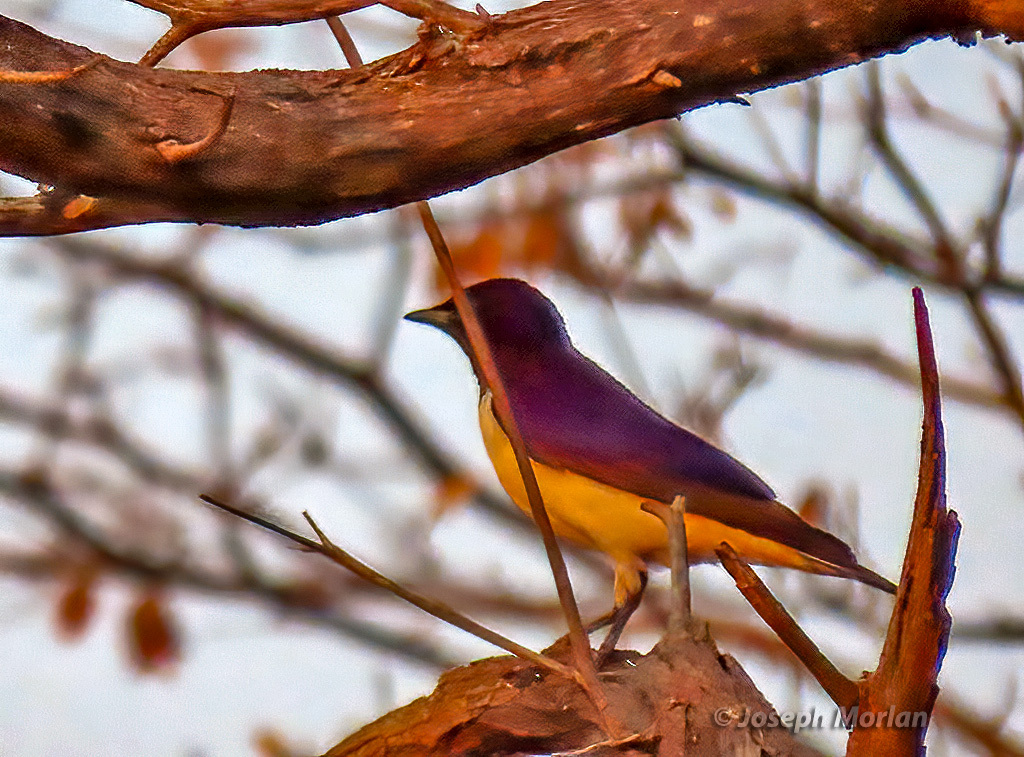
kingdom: Animalia
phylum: Chordata
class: Aves
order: Passeriformes
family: Sturnidae
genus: Cinnyricinclus
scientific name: Cinnyricinclus leucogaster
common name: Violet-backed starling
